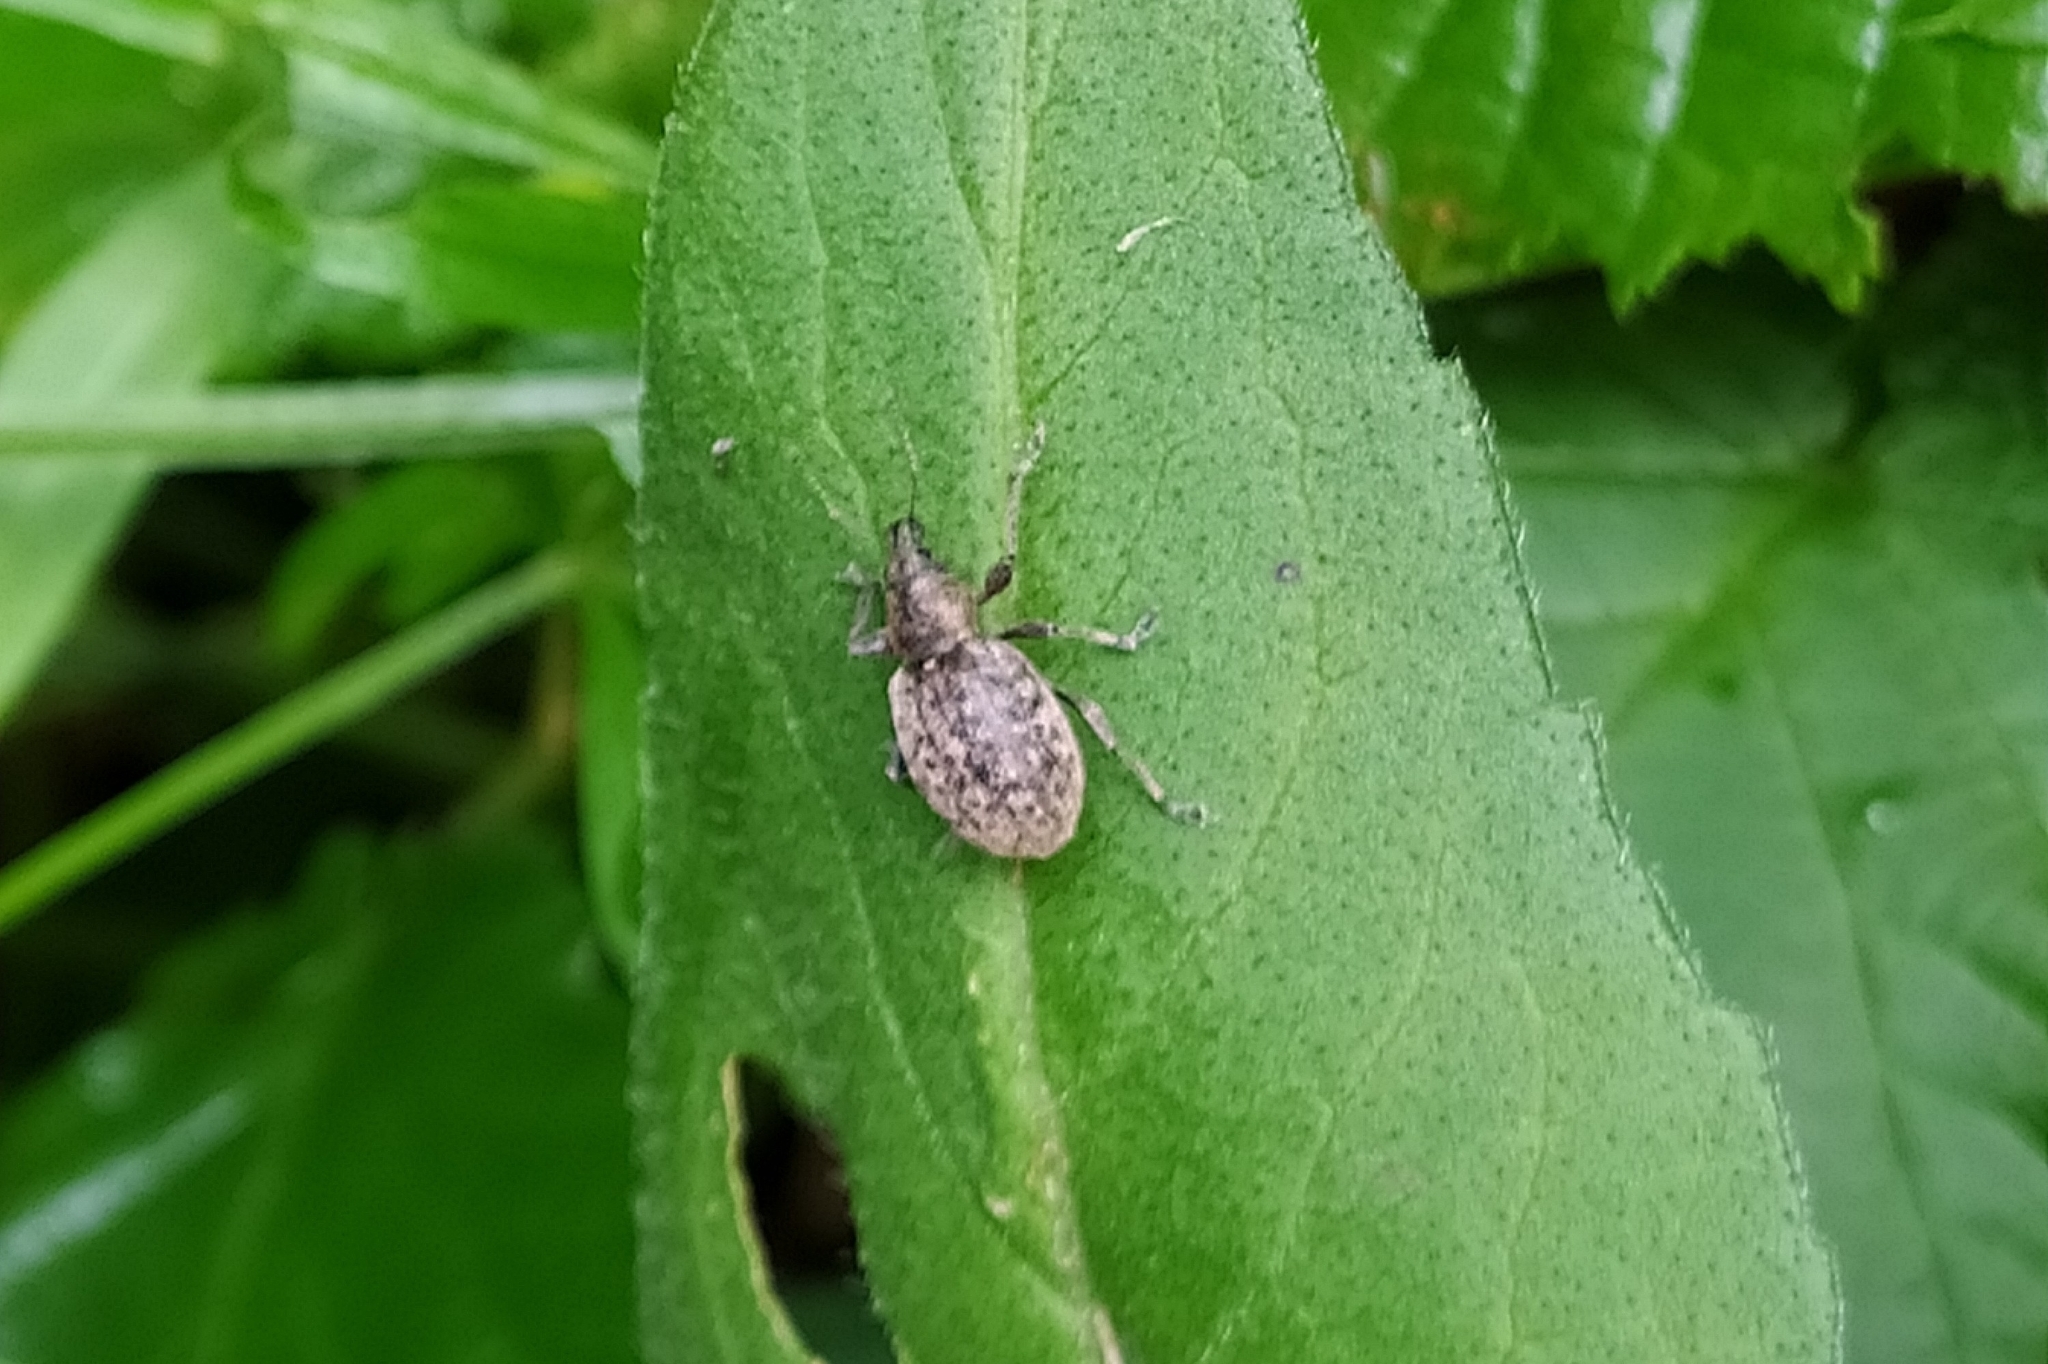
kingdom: Animalia
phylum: Arthropoda
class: Insecta
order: Coleoptera
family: Curculionidae
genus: Liophloeus
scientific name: Liophloeus tessulatus
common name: Weevil
